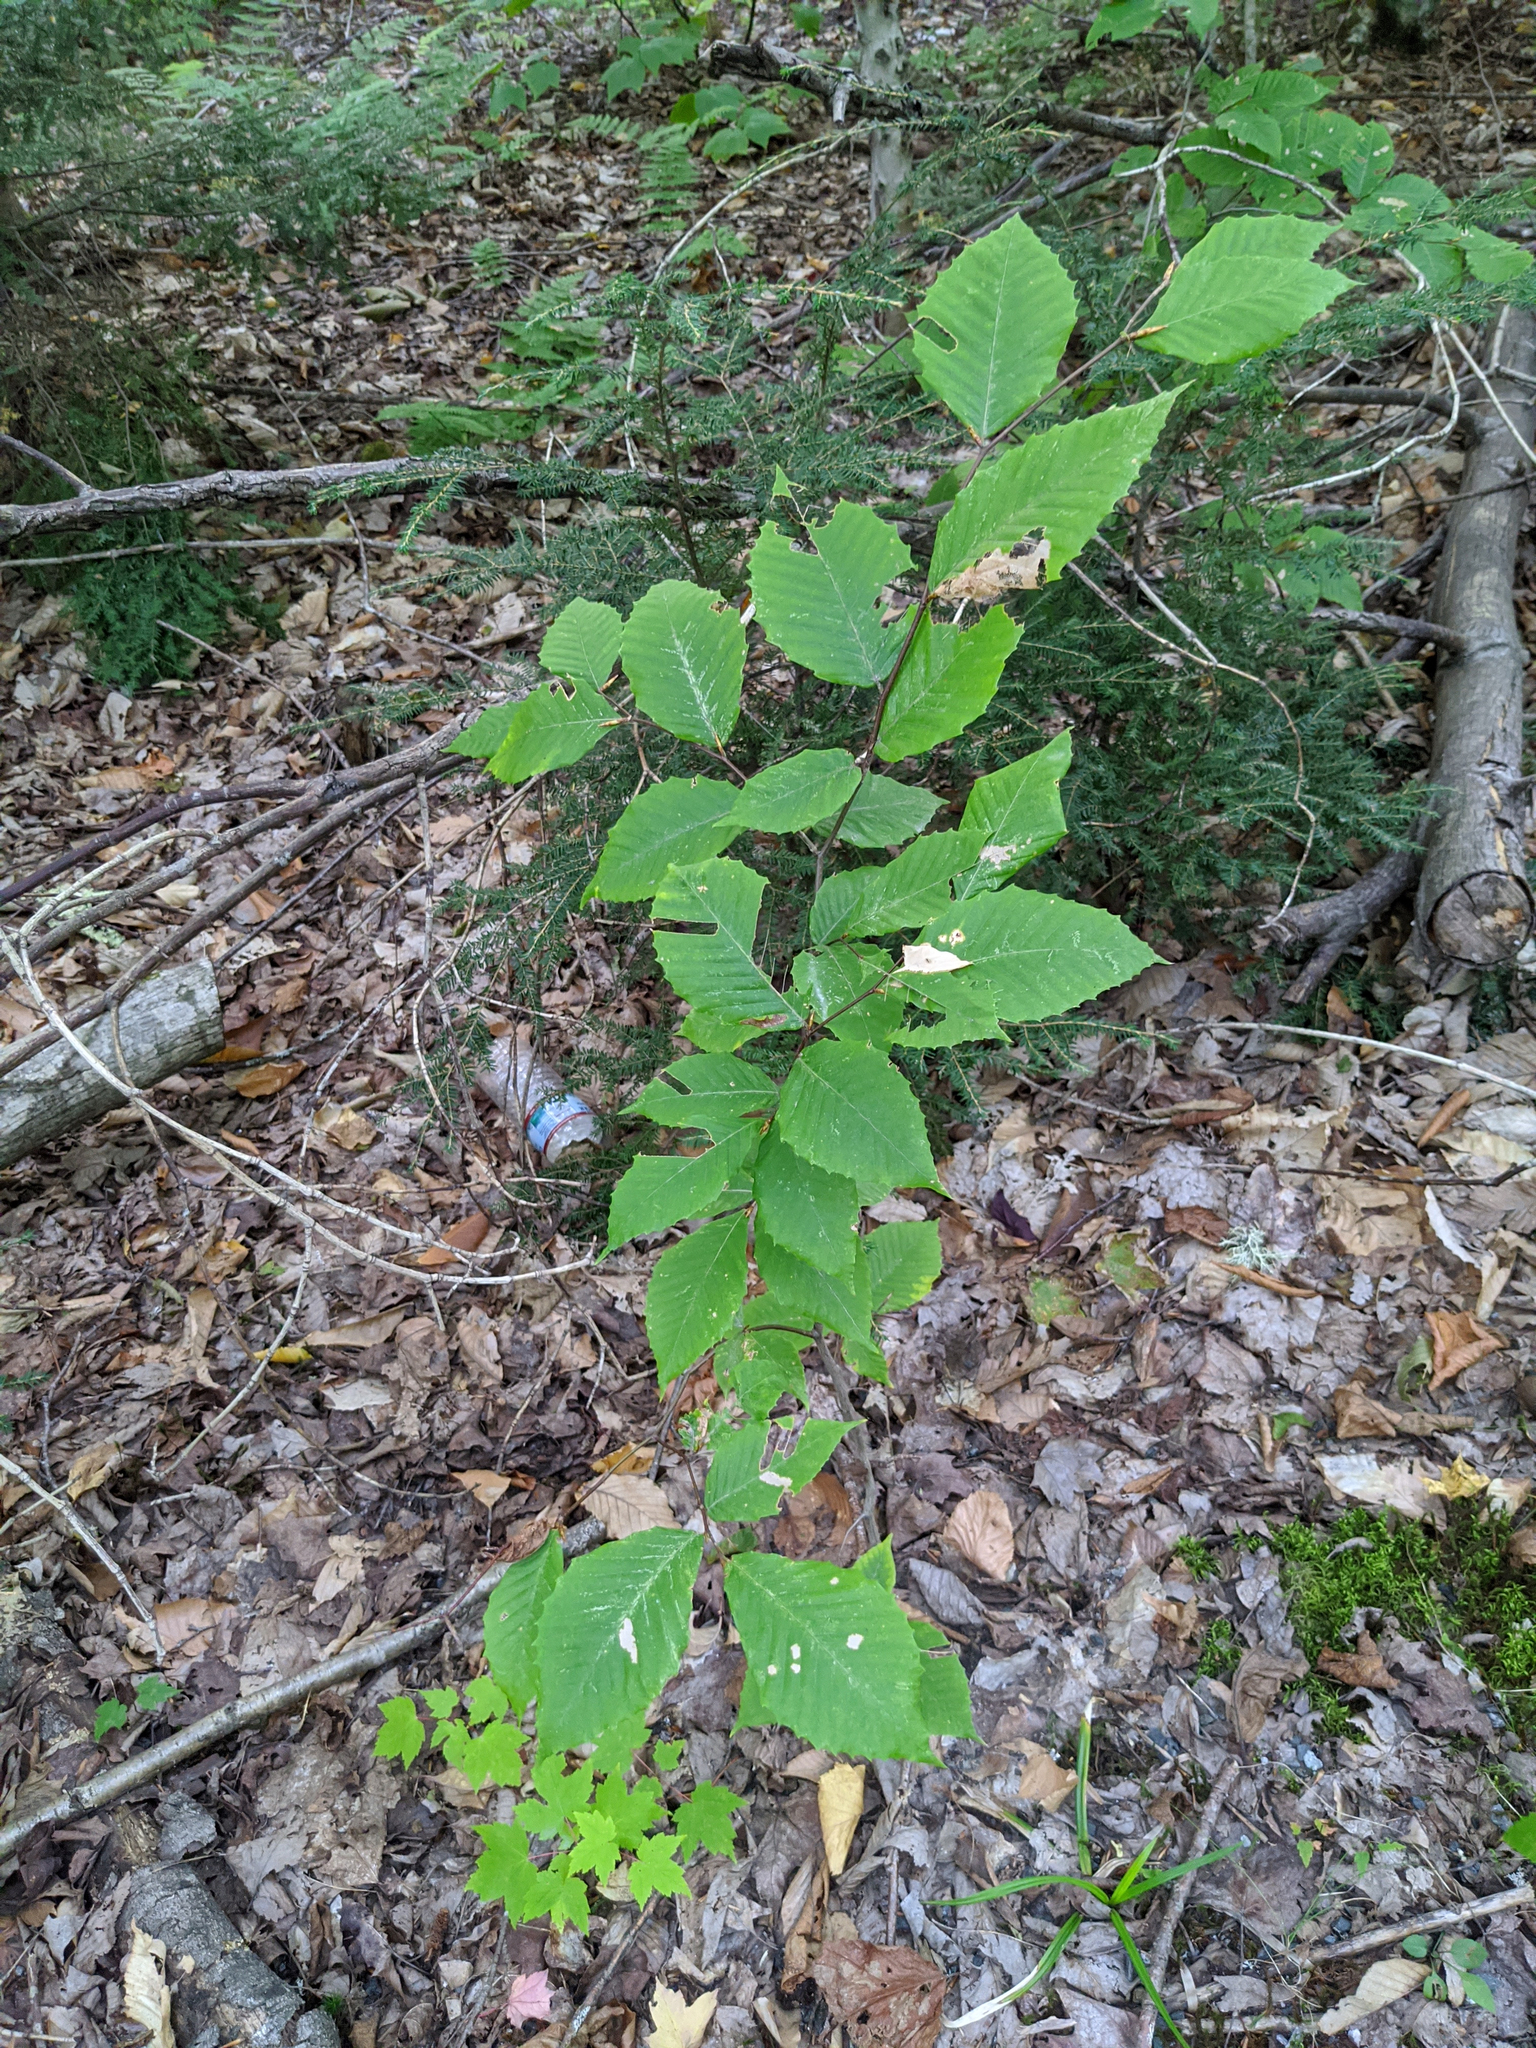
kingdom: Plantae
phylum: Tracheophyta
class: Magnoliopsida
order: Fagales
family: Fagaceae
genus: Fagus
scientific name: Fagus grandifolia
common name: American beech
